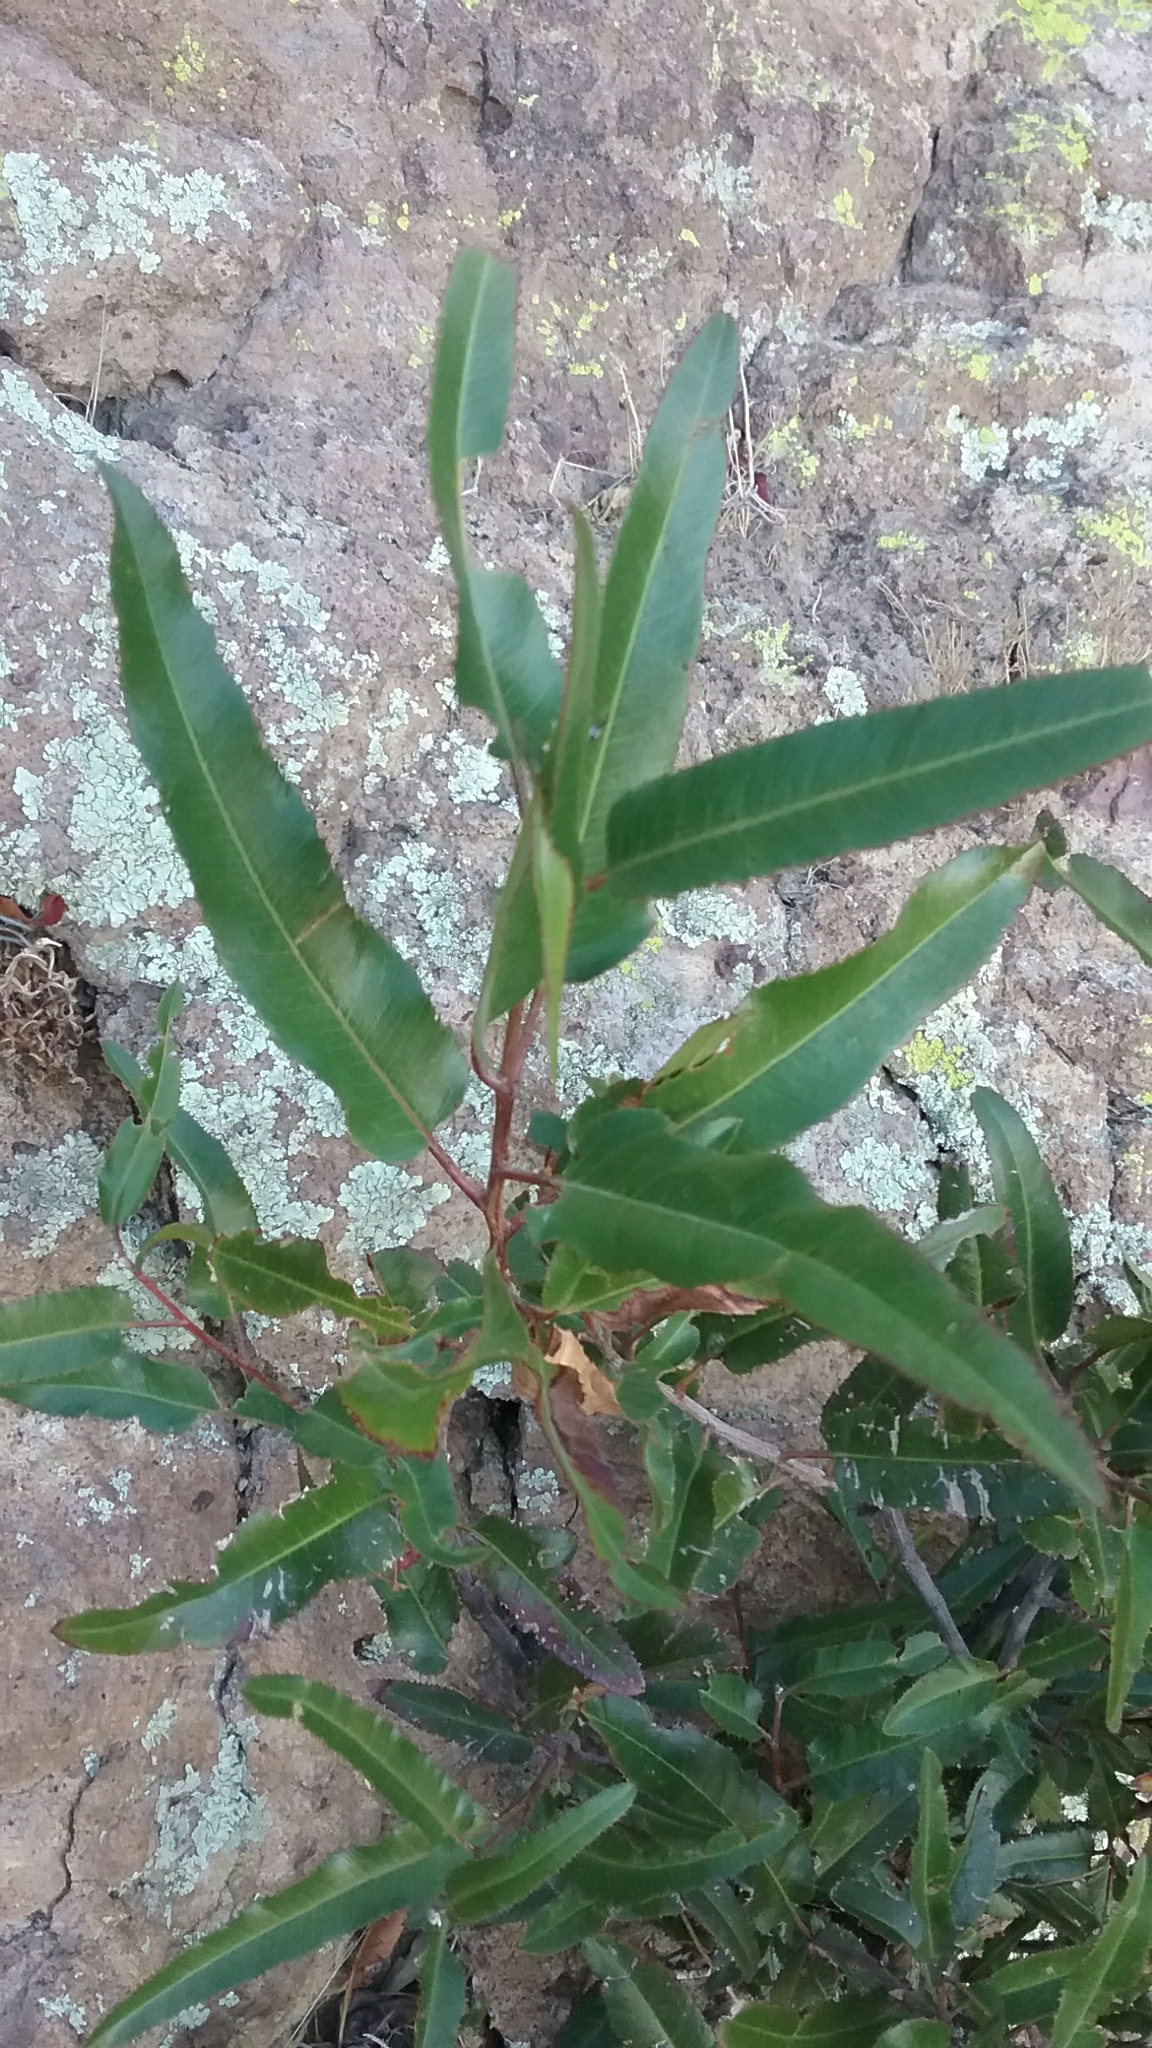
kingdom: Plantae
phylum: Tracheophyta
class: Magnoliopsida
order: Rosales
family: Rosaceae
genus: Vauquelinia
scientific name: Vauquelinia californica
